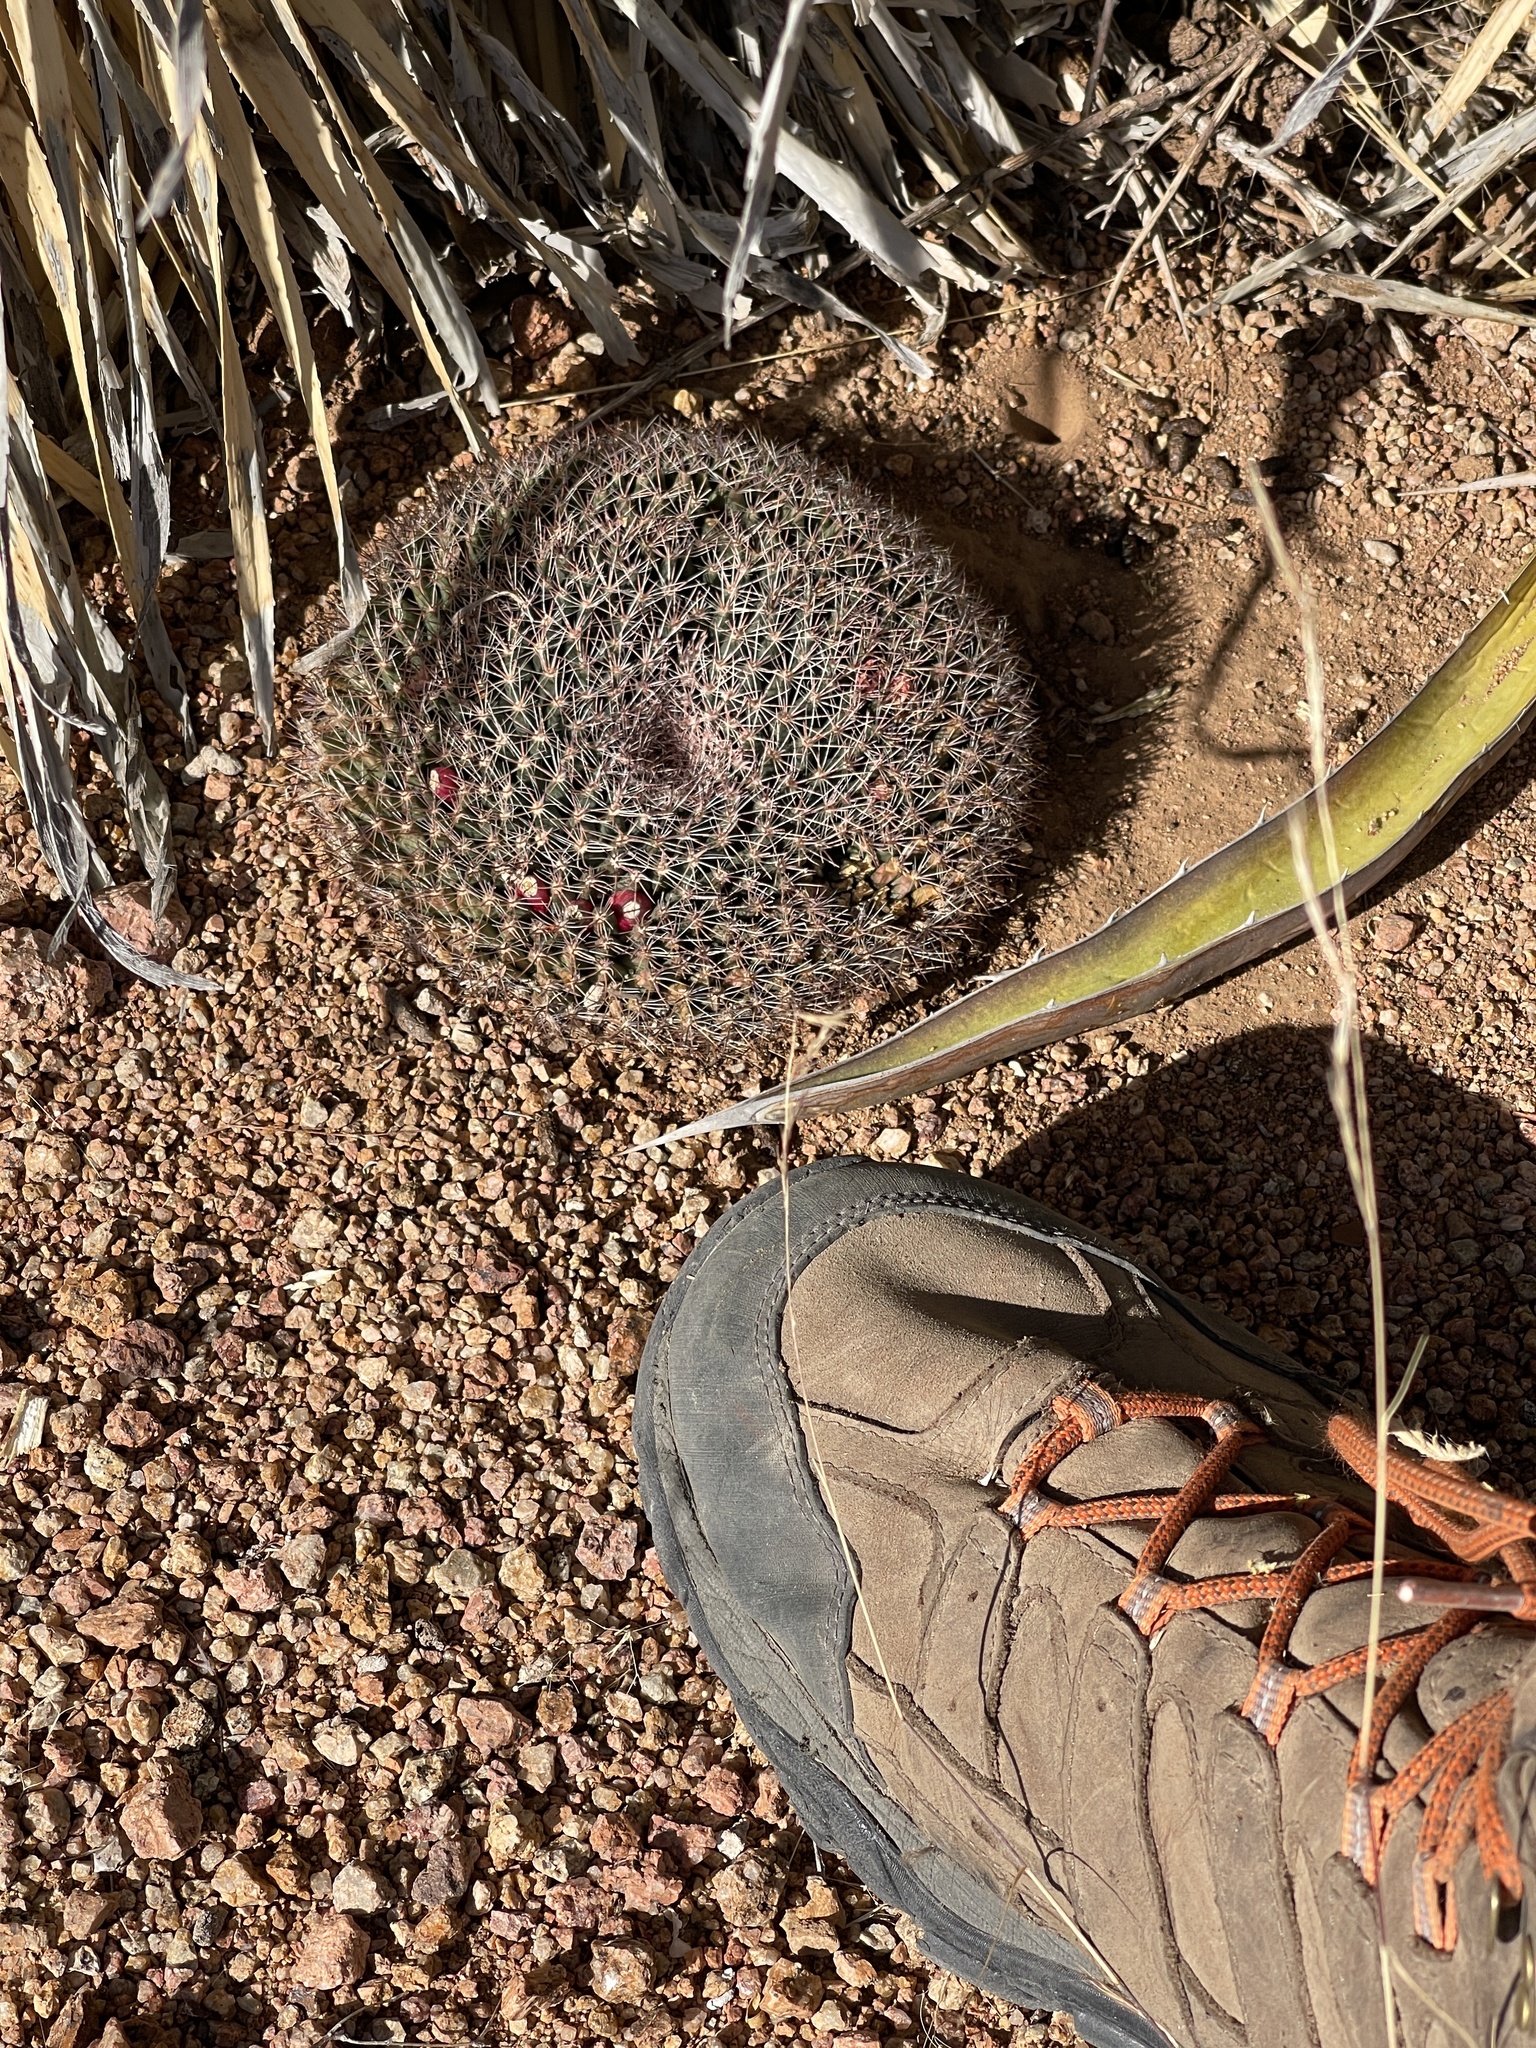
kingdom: Plantae
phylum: Tracheophyta
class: Magnoliopsida
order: Caryophyllales
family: Cactaceae
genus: Mammillaria
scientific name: Mammillaria heyderi
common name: Little nipple cactus
